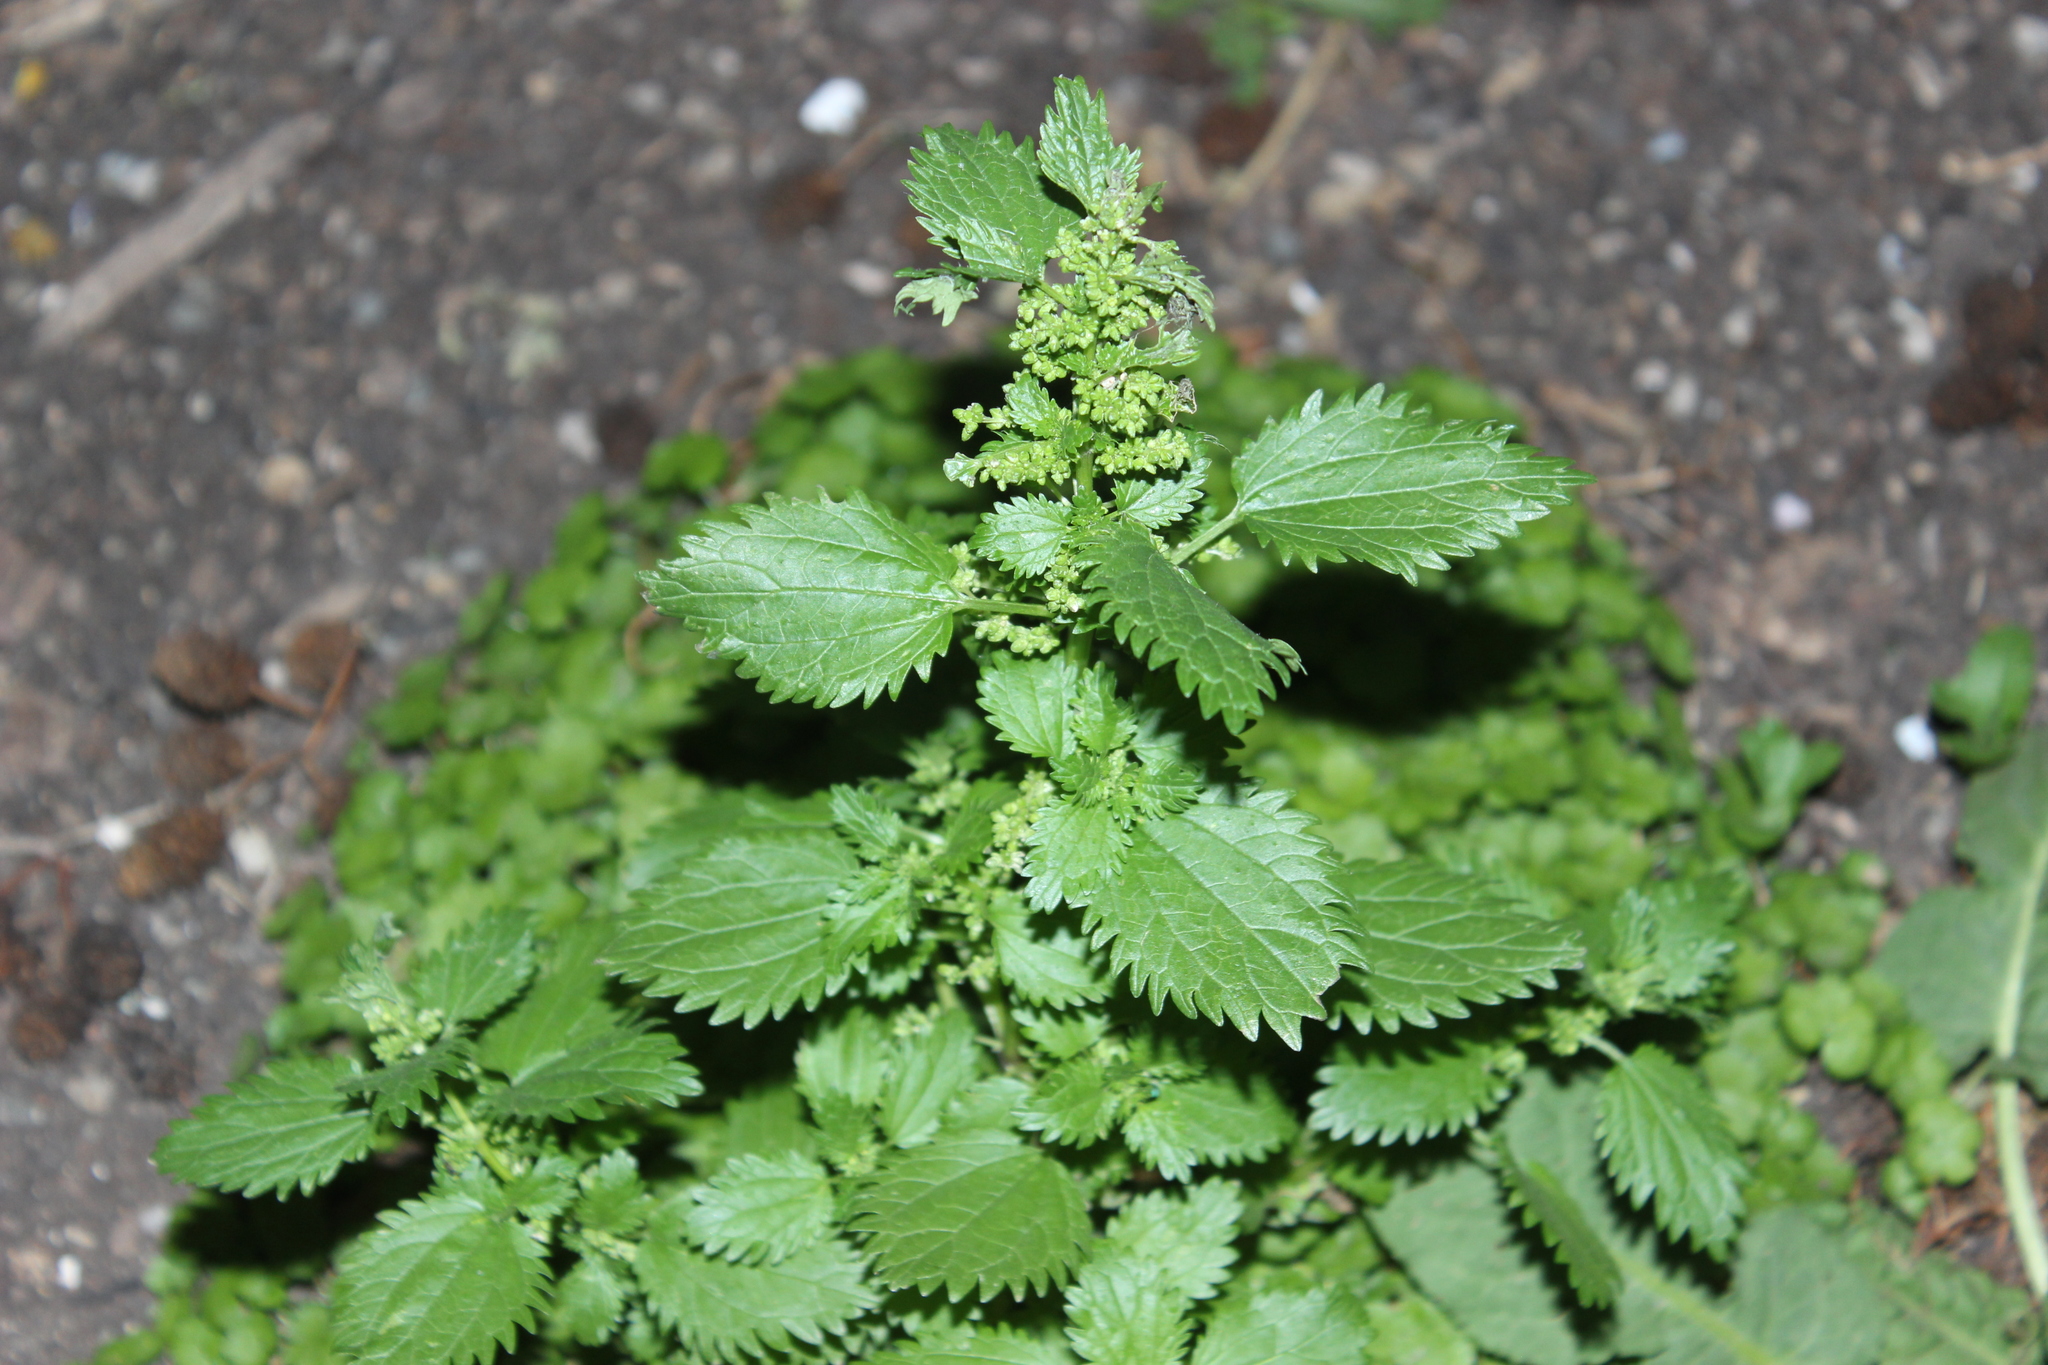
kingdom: Plantae
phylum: Tracheophyta
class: Magnoliopsida
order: Rosales
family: Urticaceae
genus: Urtica
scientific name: Urtica urens
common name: Dwarf nettle
